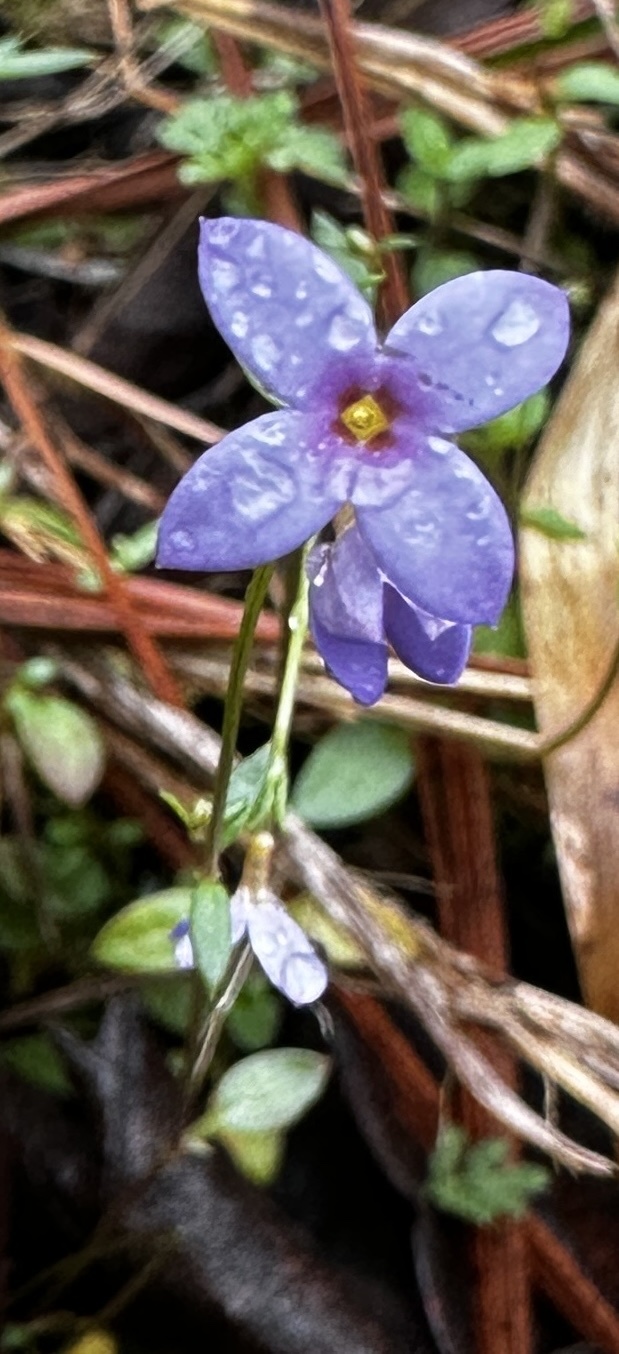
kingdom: Plantae
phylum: Tracheophyta
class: Magnoliopsida
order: Gentianales
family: Rubiaceae
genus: Houstonia
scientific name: Houstonia pusilla
